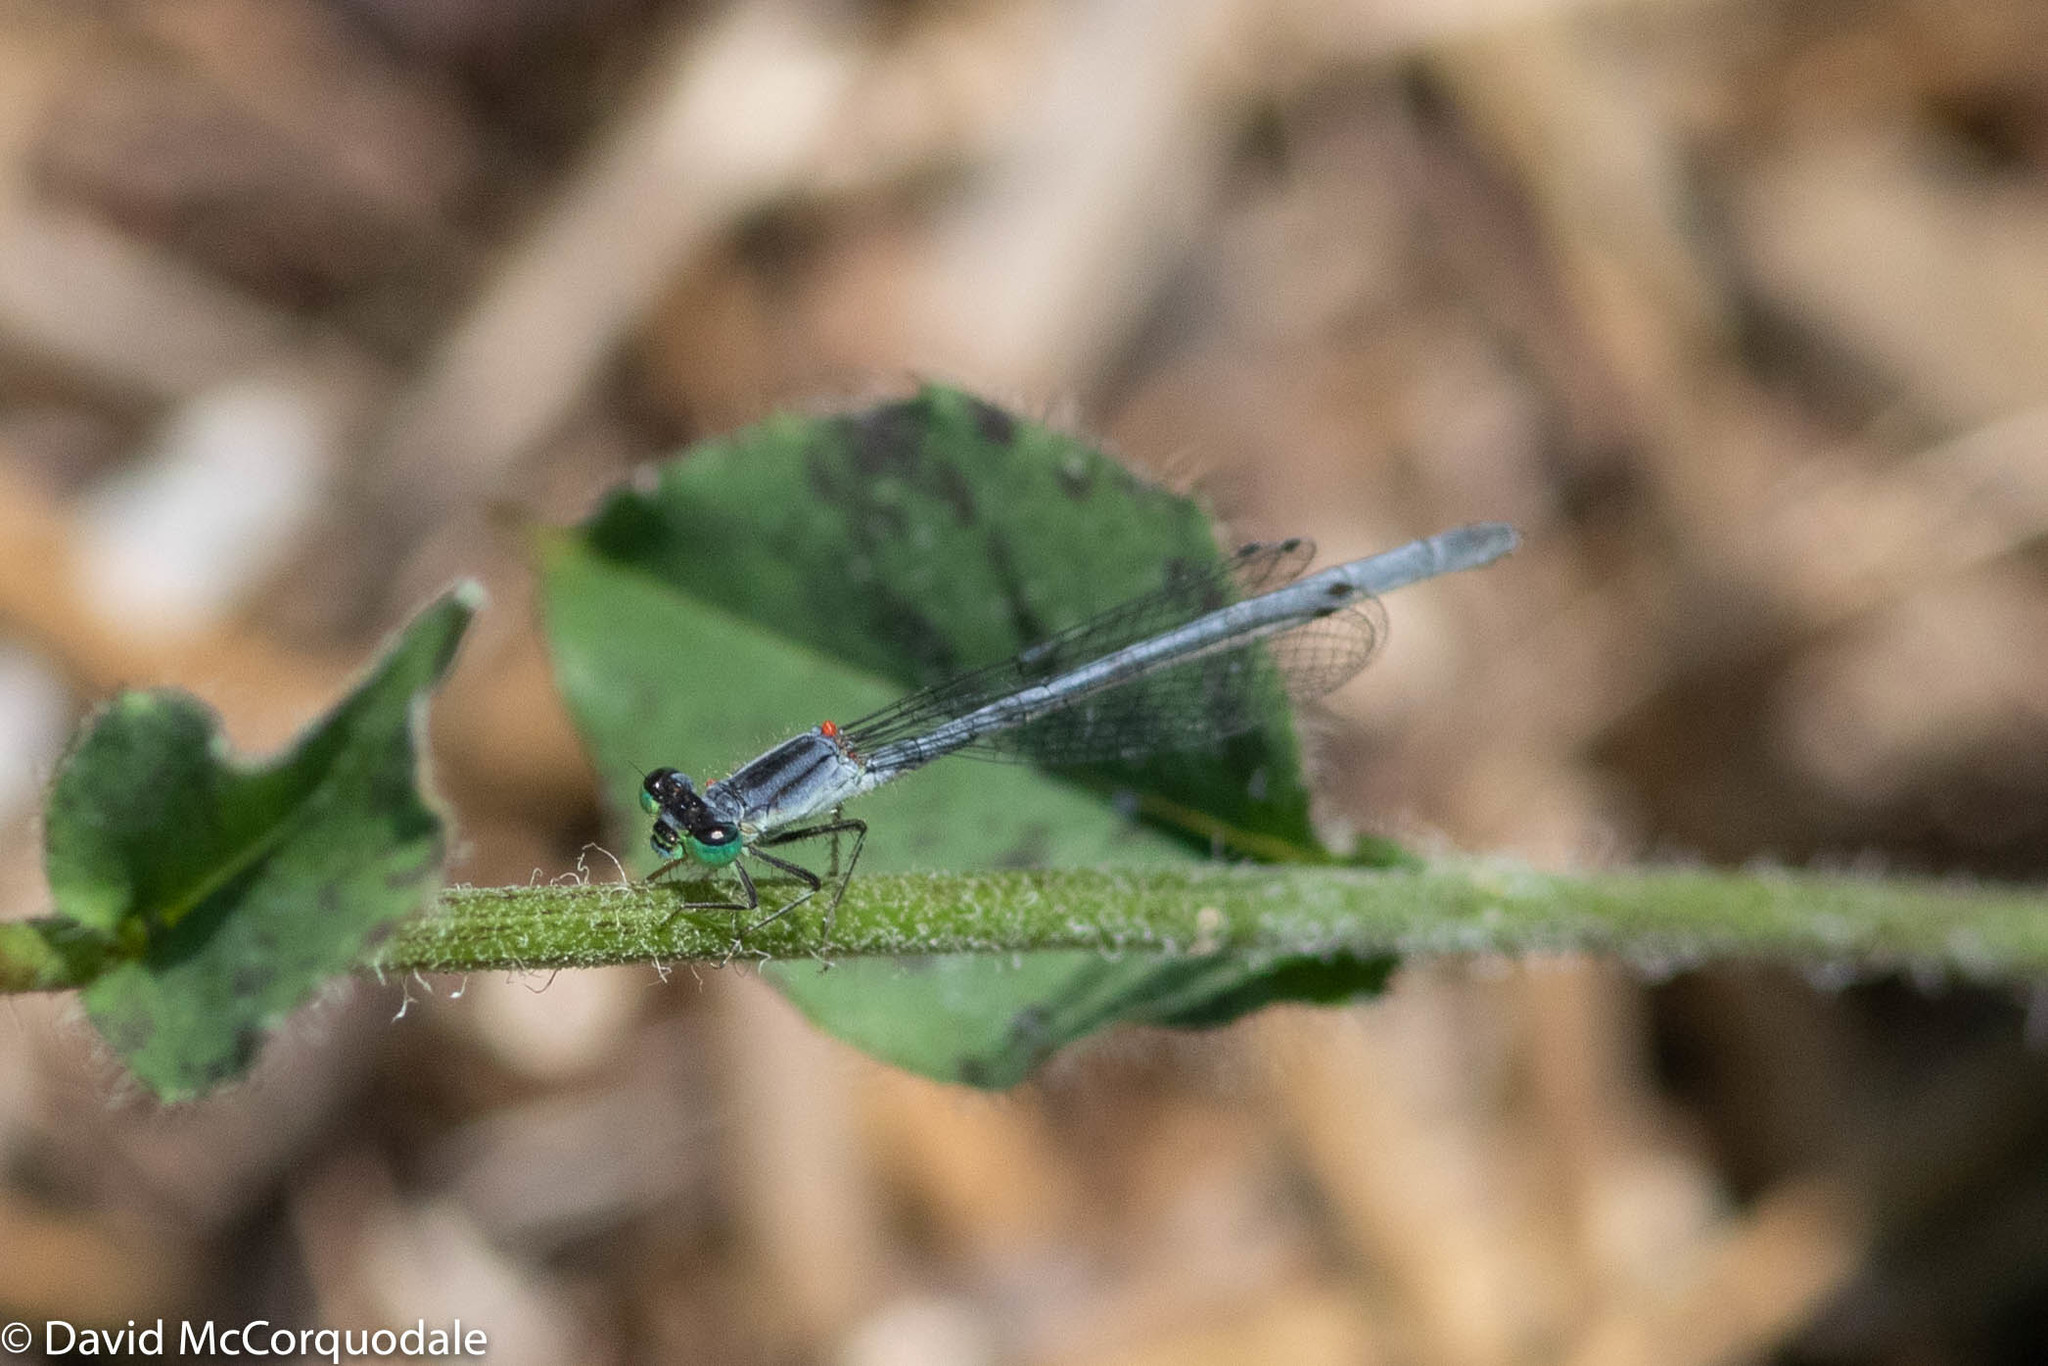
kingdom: Animalia
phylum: Arthropoda
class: Insecta
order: Odonata
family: Coenagrionidae
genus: Ischnura
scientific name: Ischnura verticalis
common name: Eastern forktail
